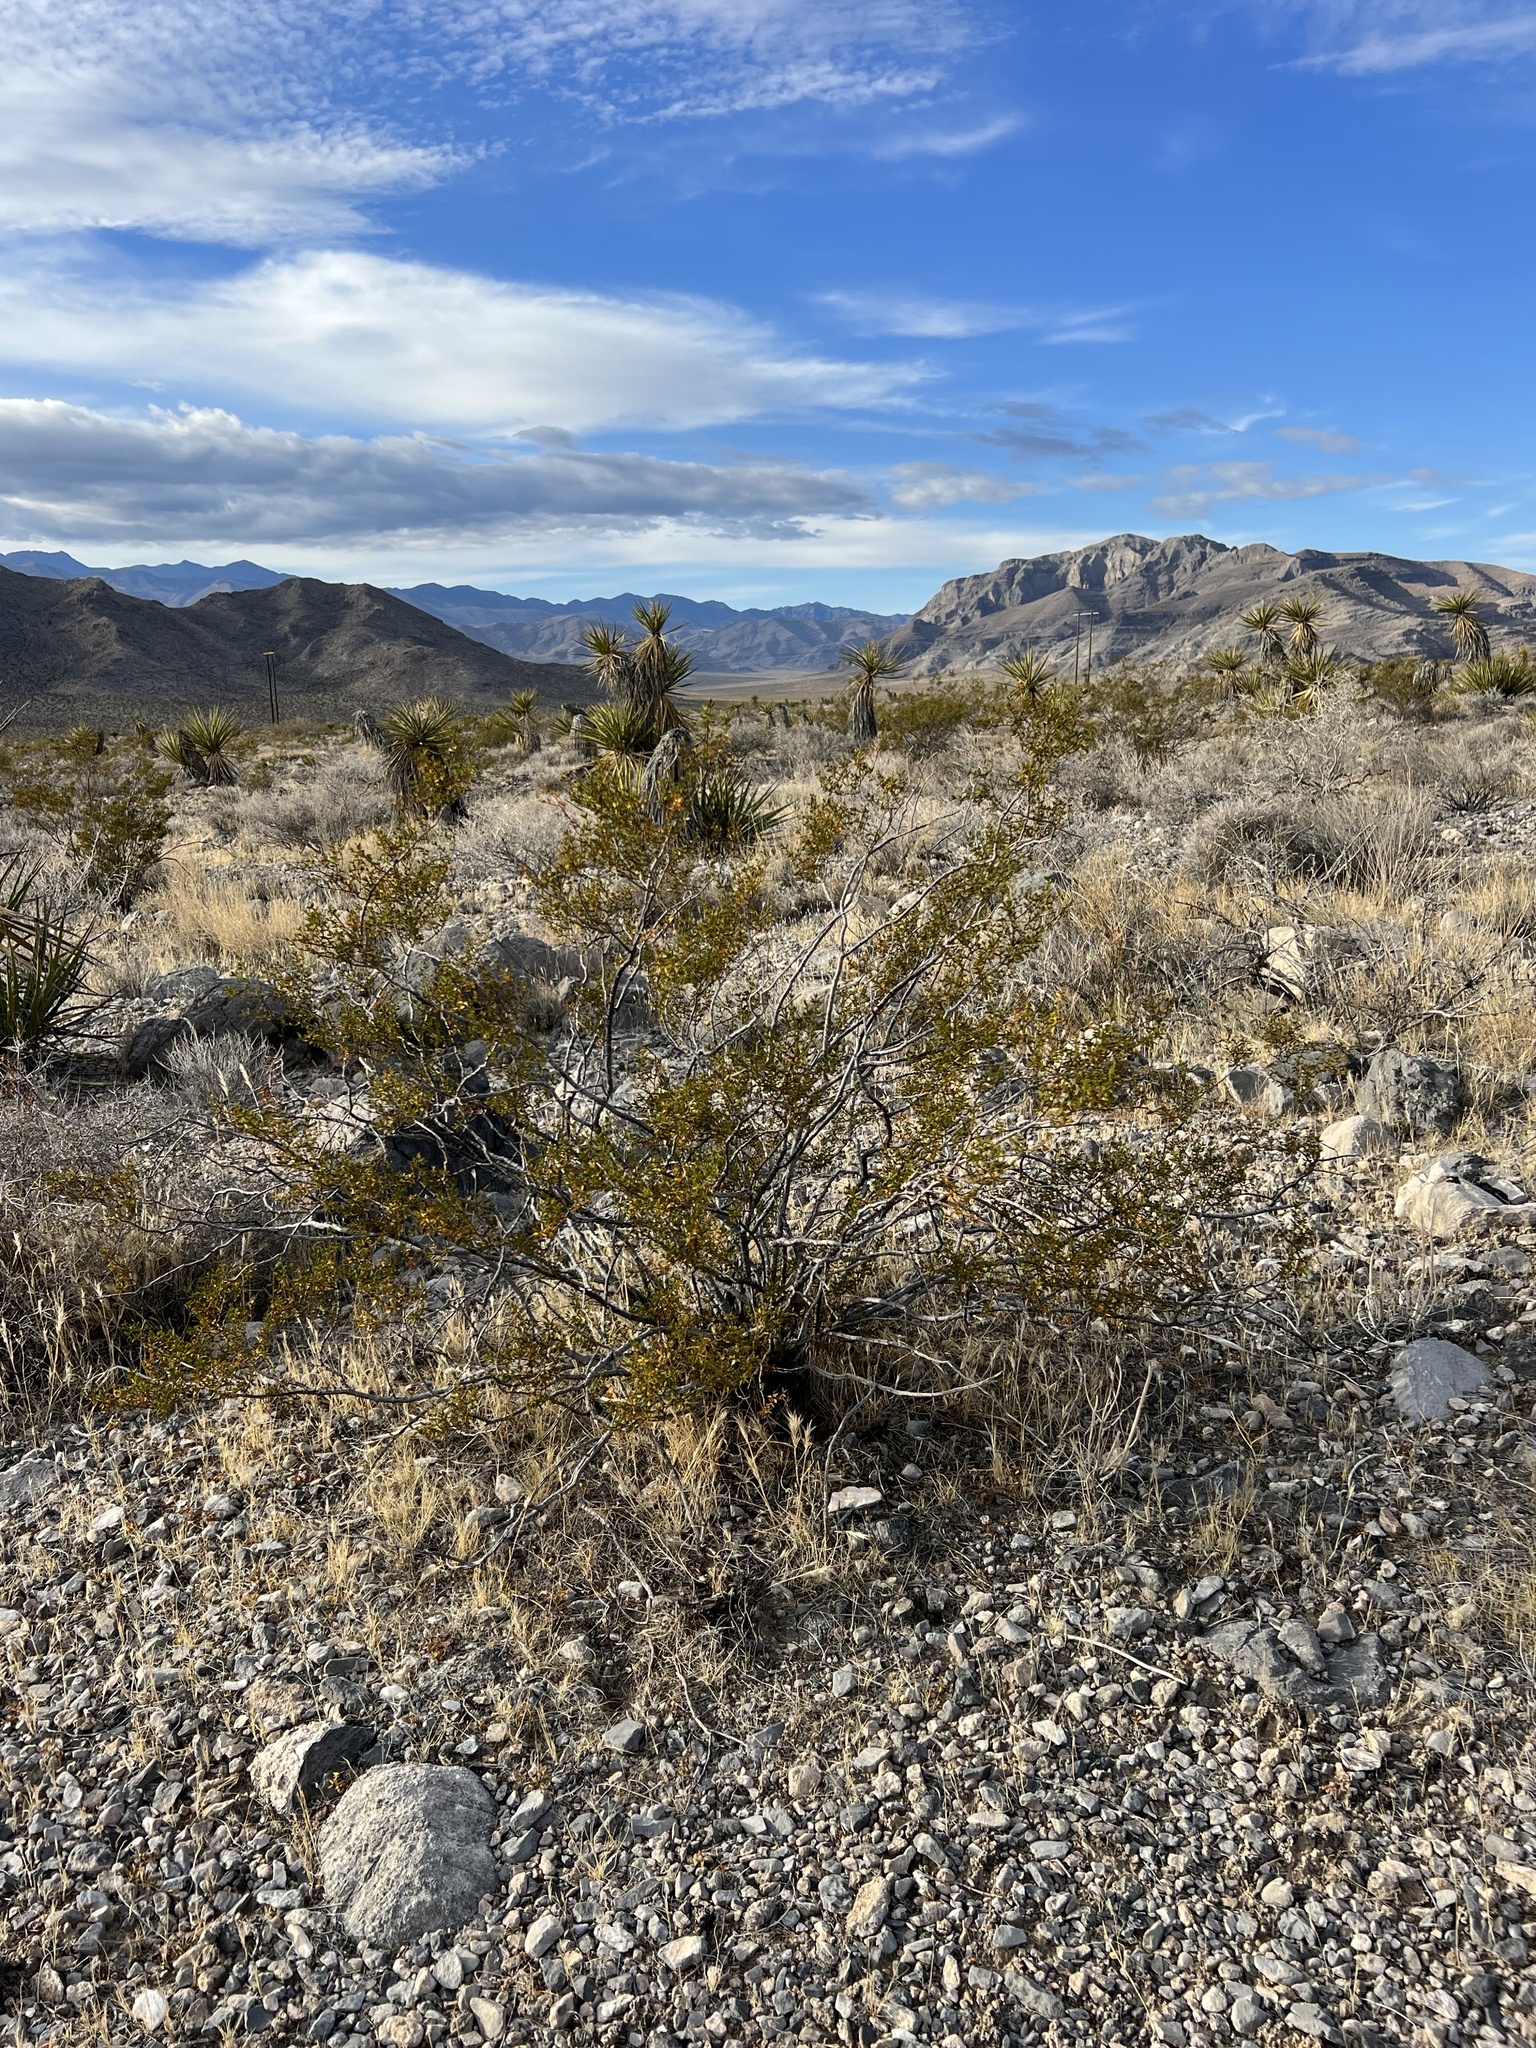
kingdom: Plantae
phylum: Tracheophyta
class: Magnoliopsida
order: Zygophyllales
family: Zygophyllaceae
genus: Larrea
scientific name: Larrea tridentata
